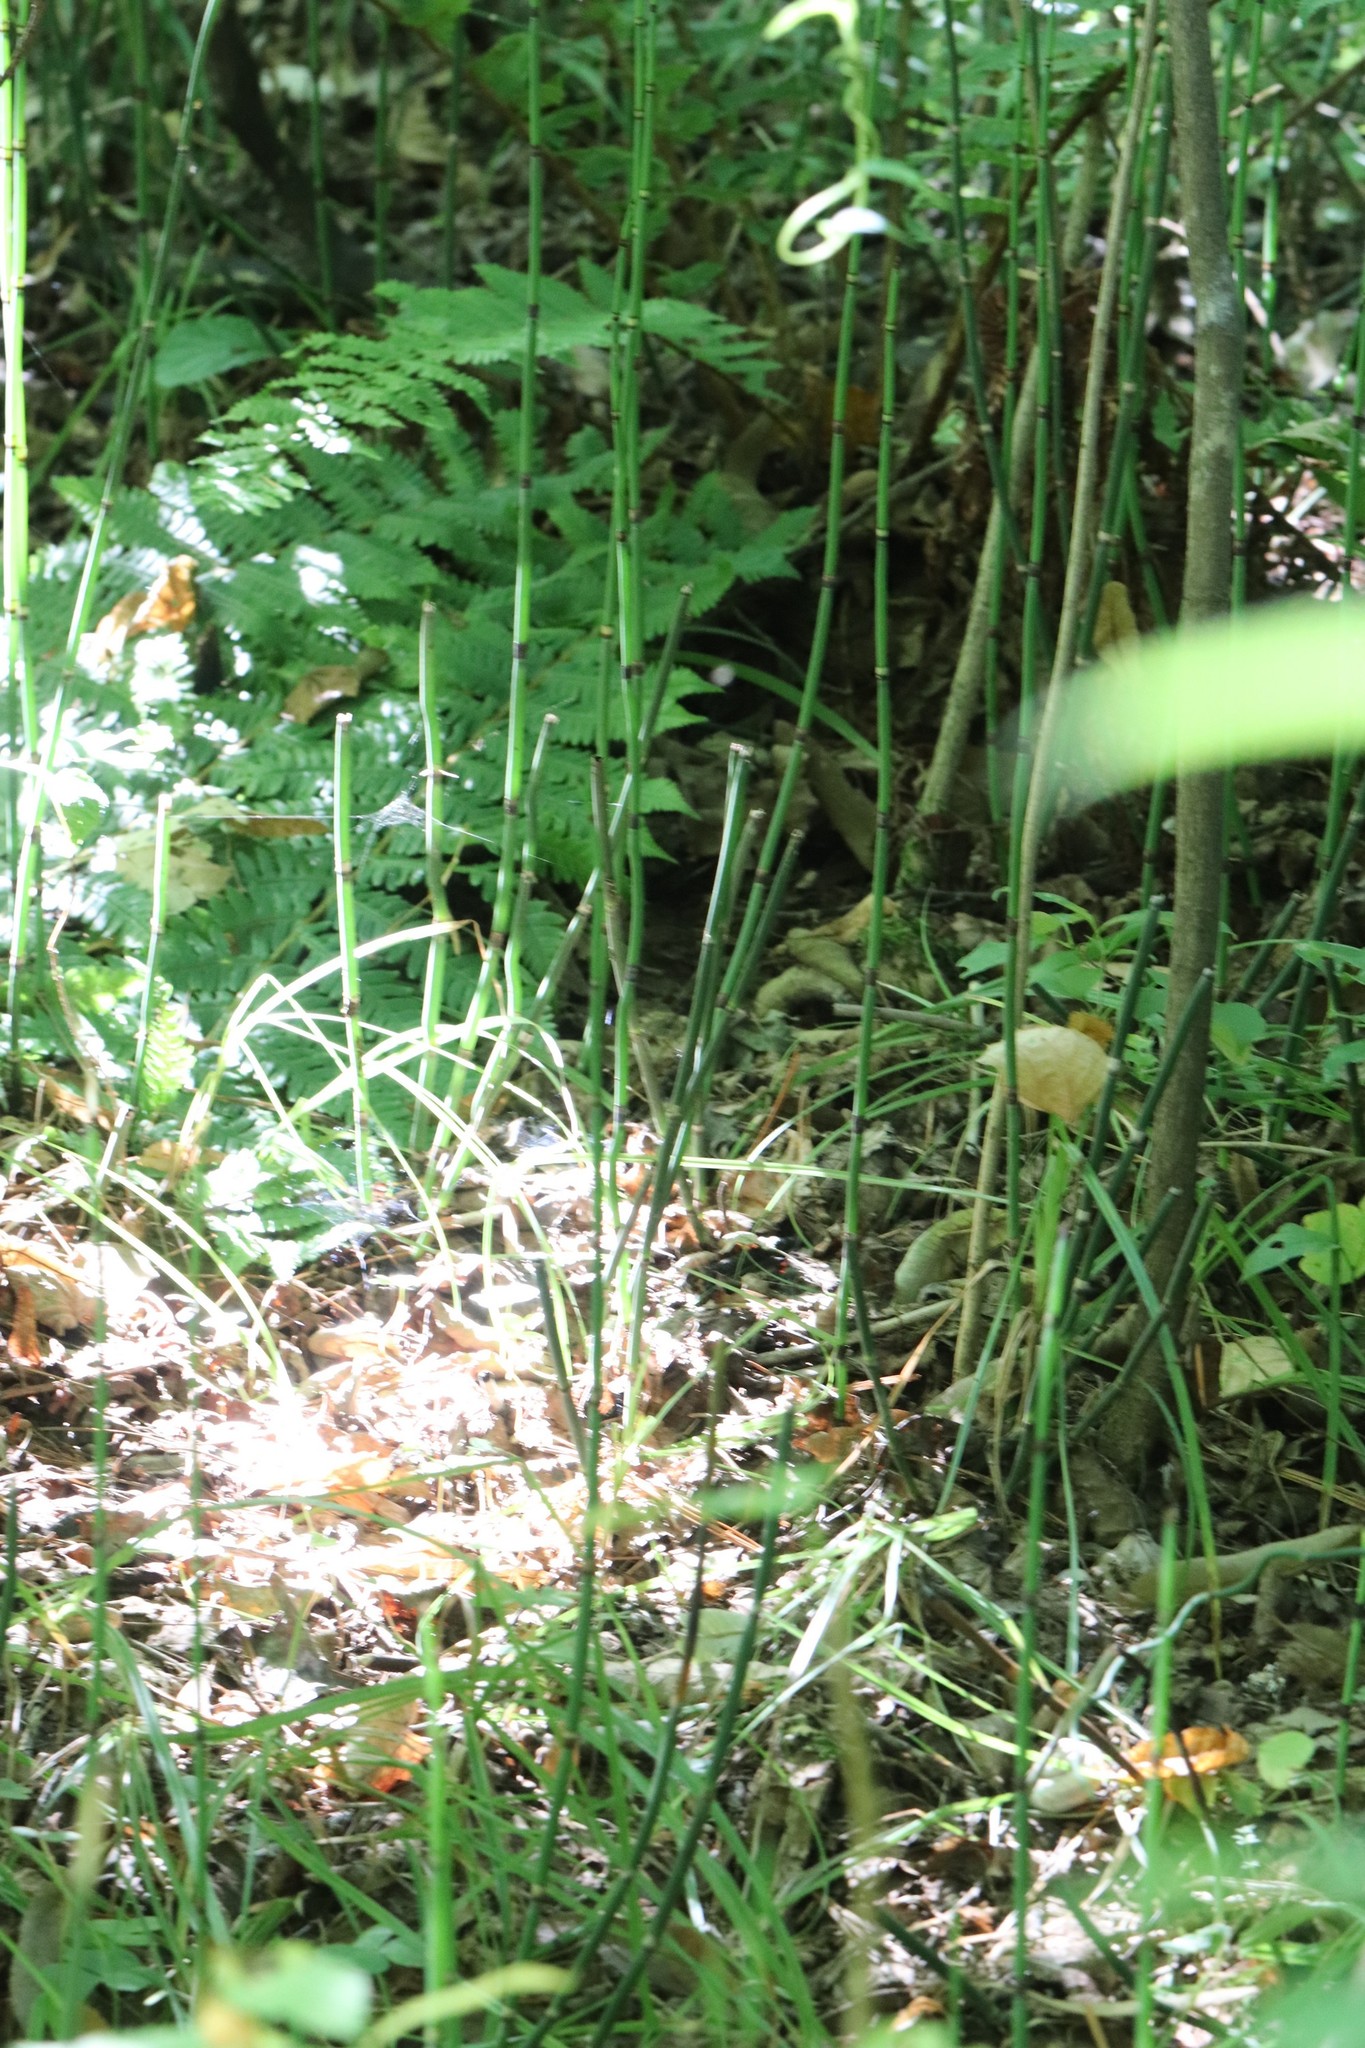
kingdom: Plantae
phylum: Tracheophyta
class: Polypodiopsida
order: Equisetales
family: Equisetaceae
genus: Equisetum
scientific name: Equisetum hyemale
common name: Rough horsetail
